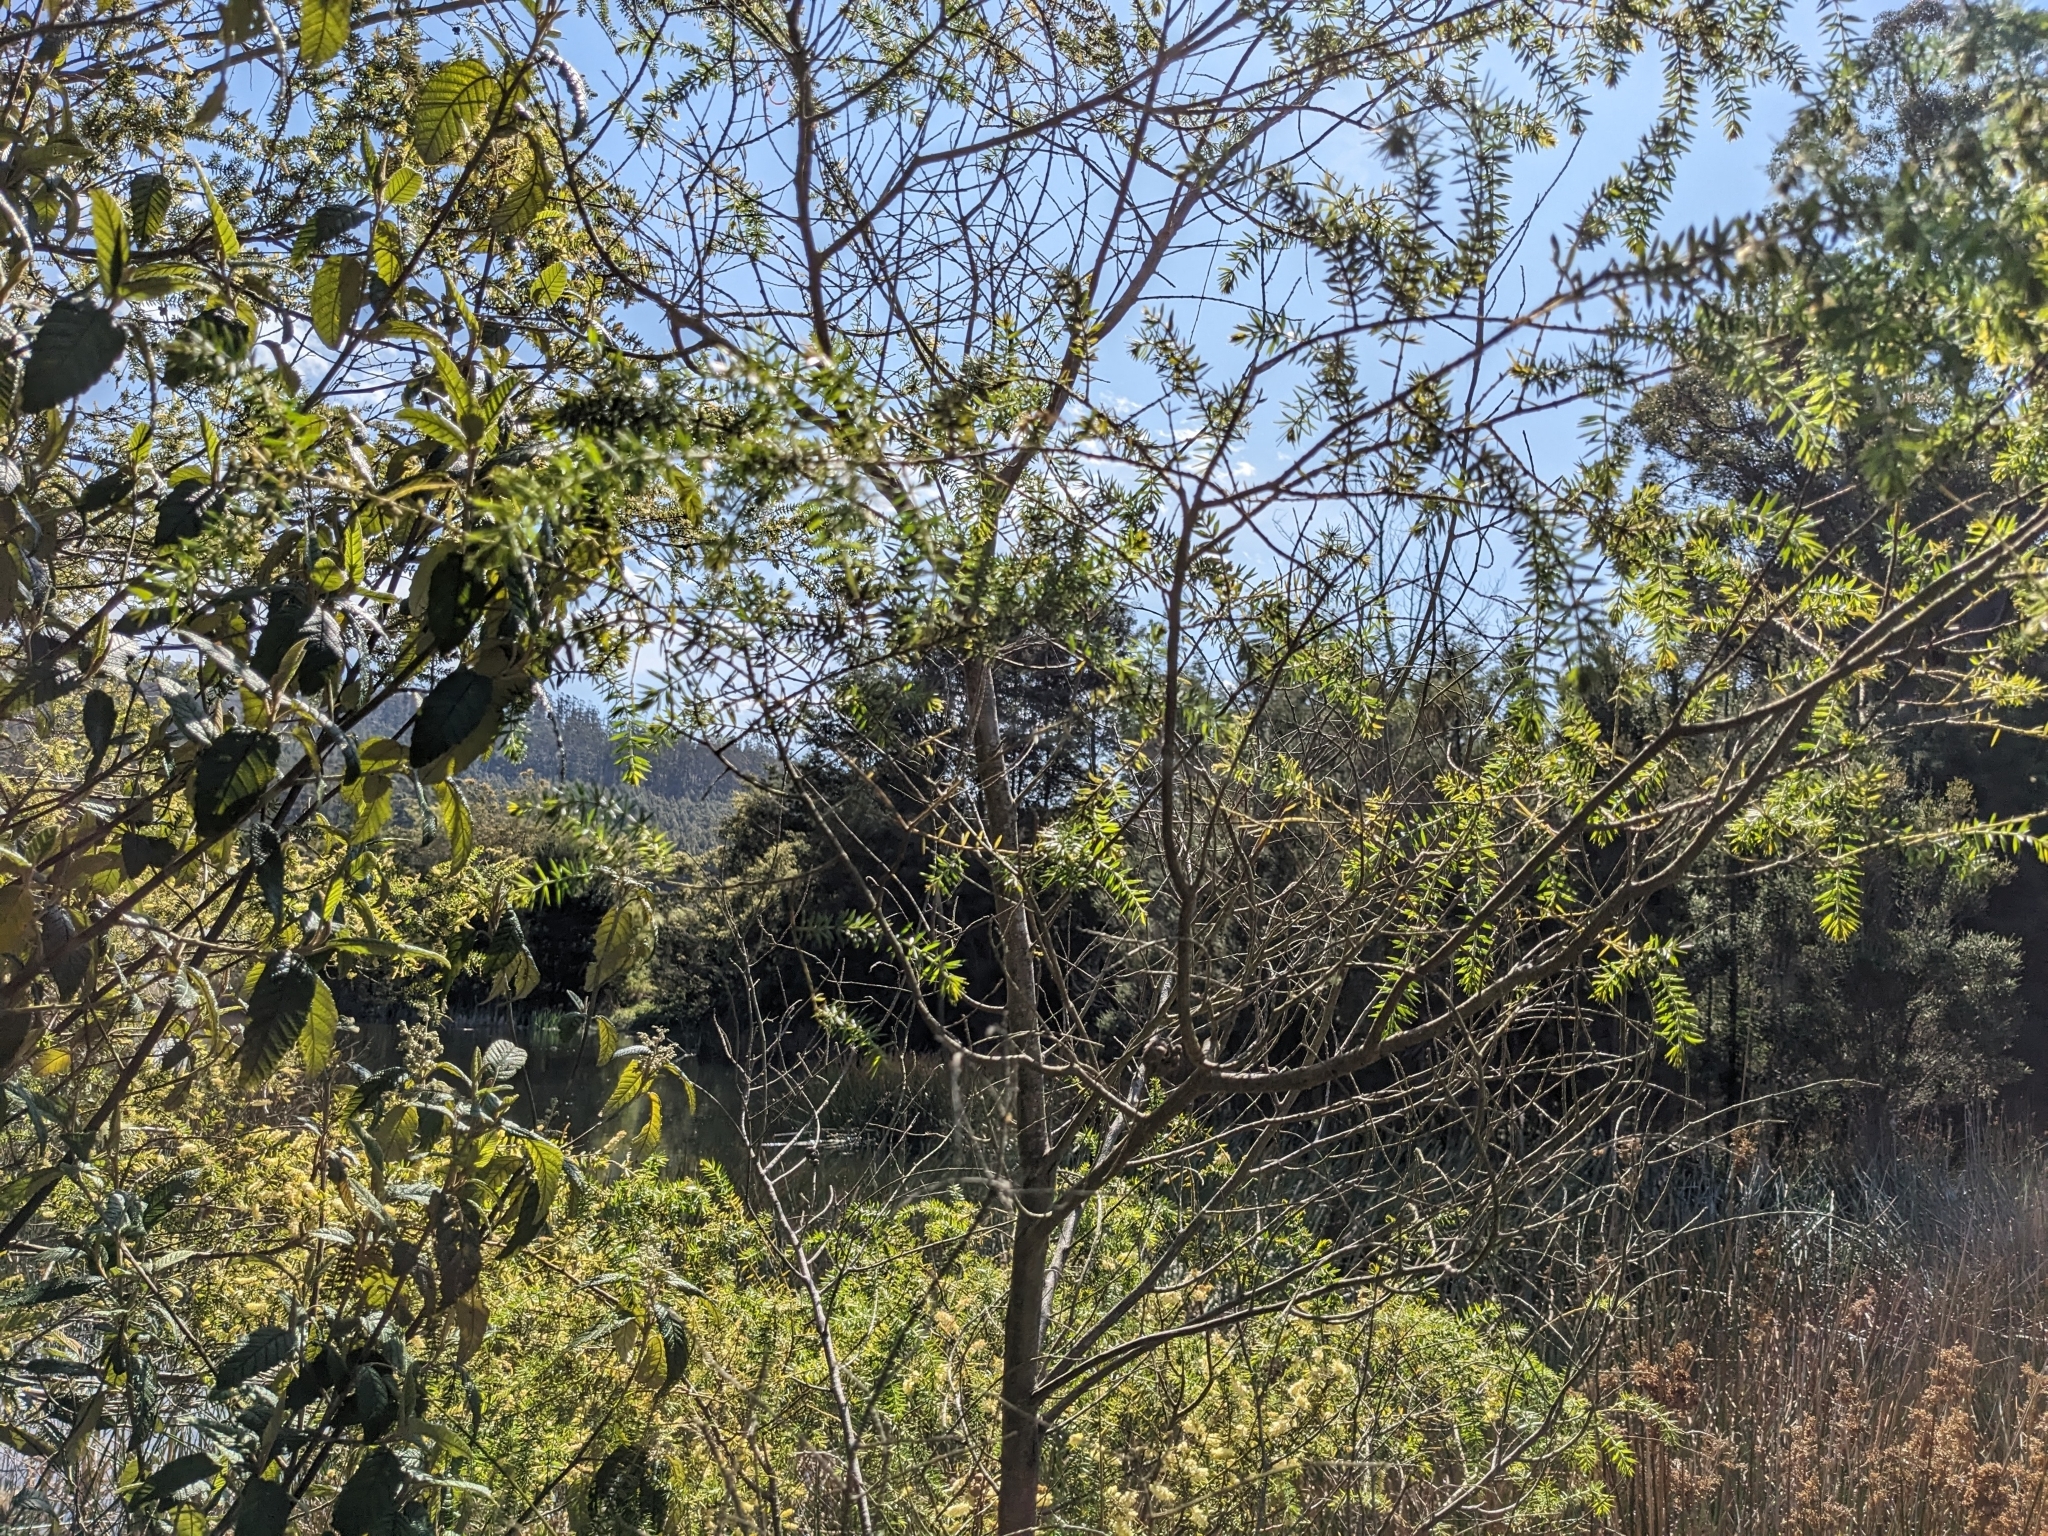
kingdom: Plantae
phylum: Tracheophyta
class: Magnoliopsida
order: Fabales
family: Fabaceae
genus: Acacia
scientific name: Acacia verticillata
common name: Prickly moses
